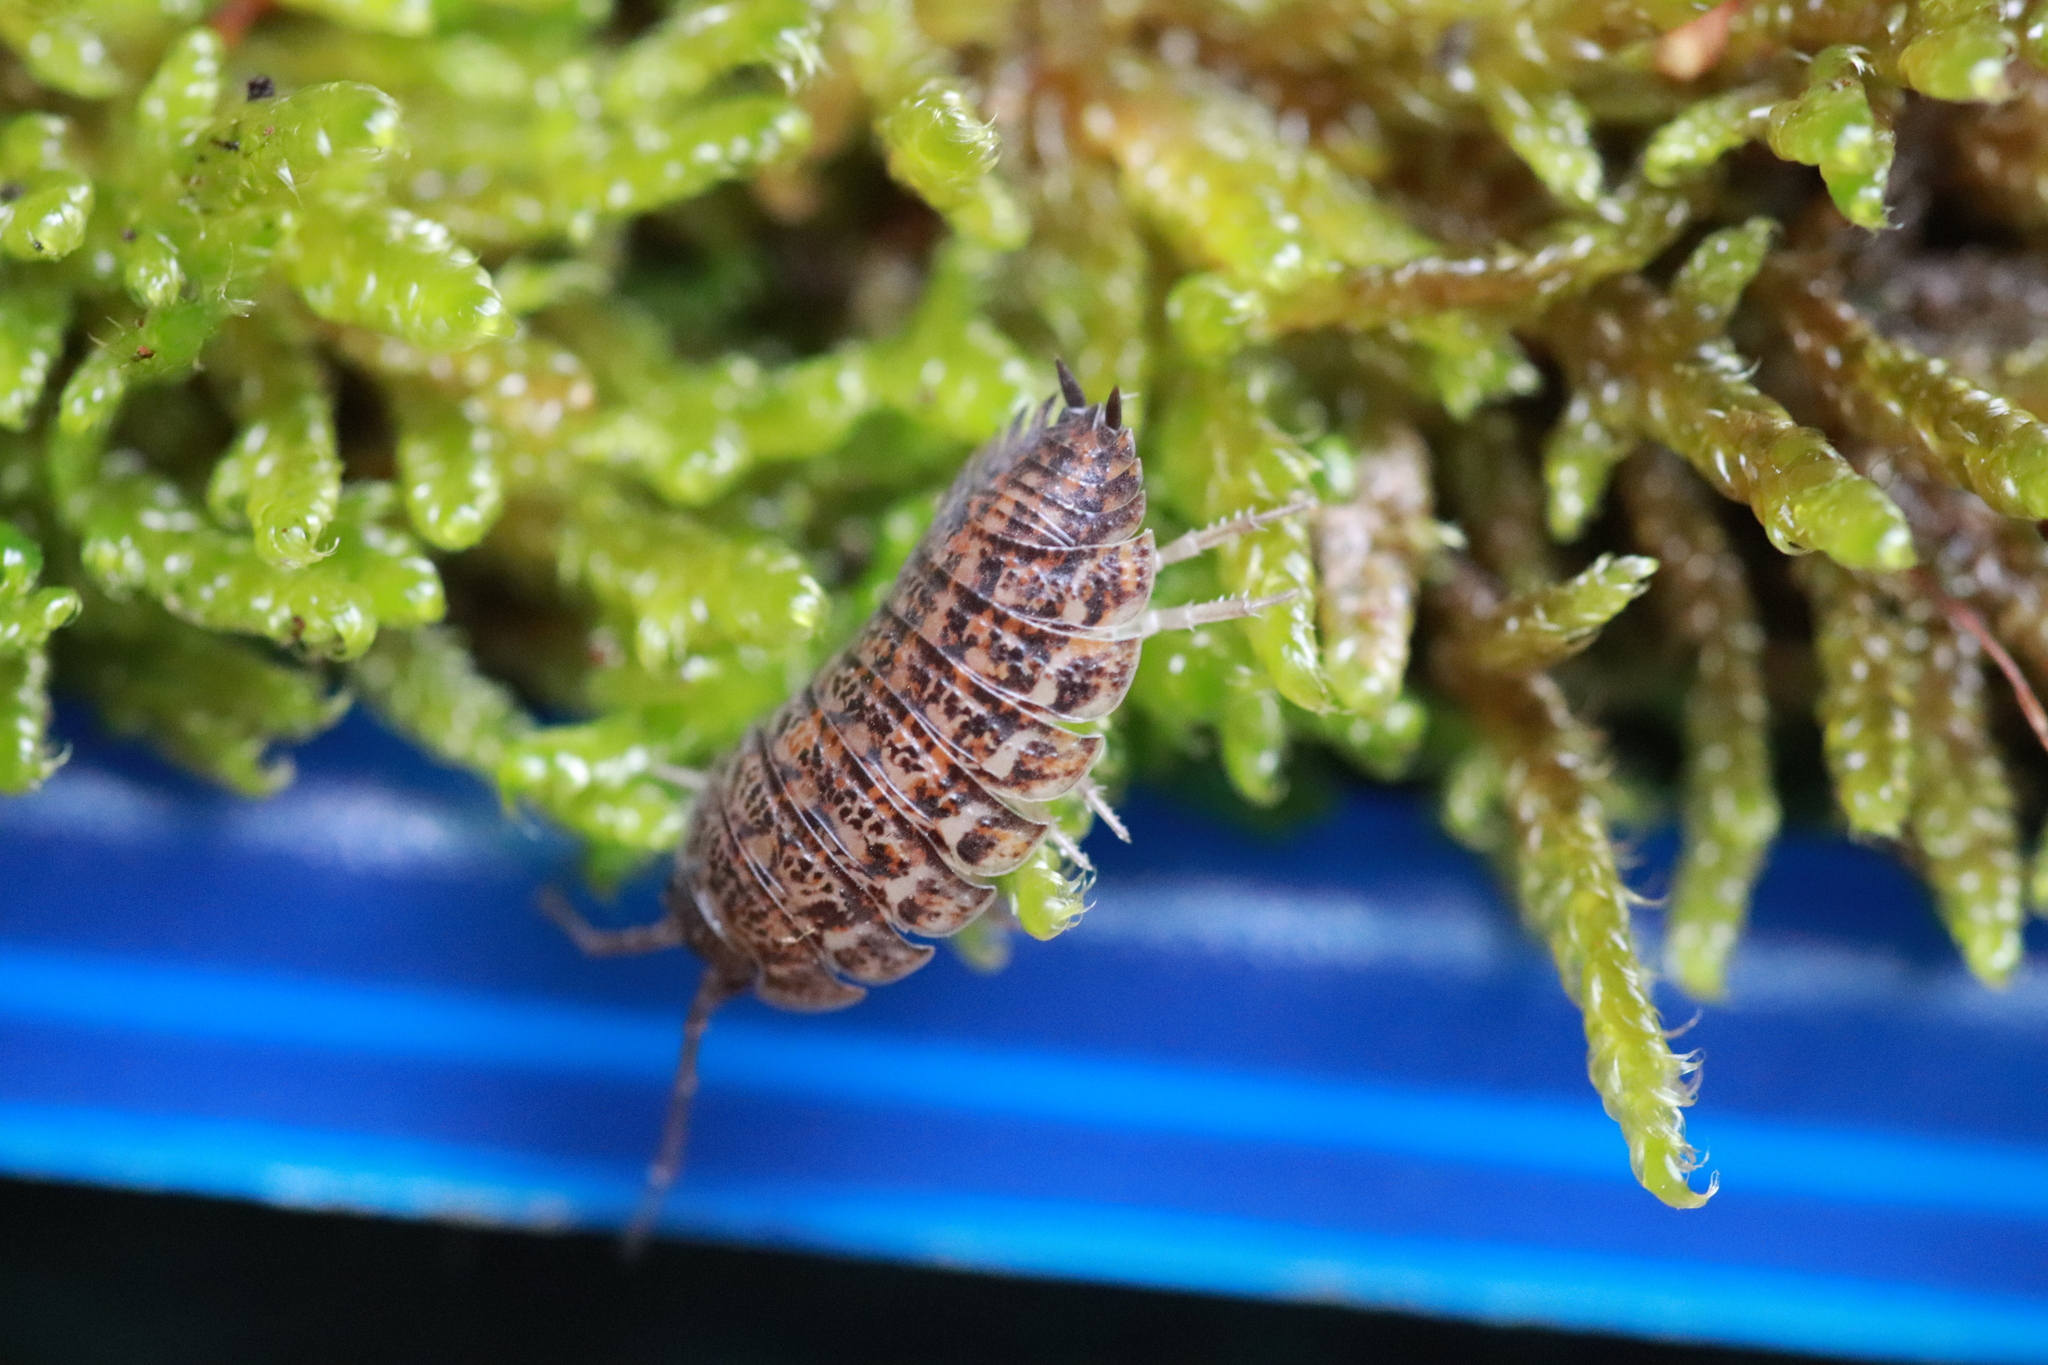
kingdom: Animalia
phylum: Arthropoda
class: Malacostraca
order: Isopoda
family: Trachelipodidae
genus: Trachelipus
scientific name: Trachelipus rathkii
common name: Isopod
